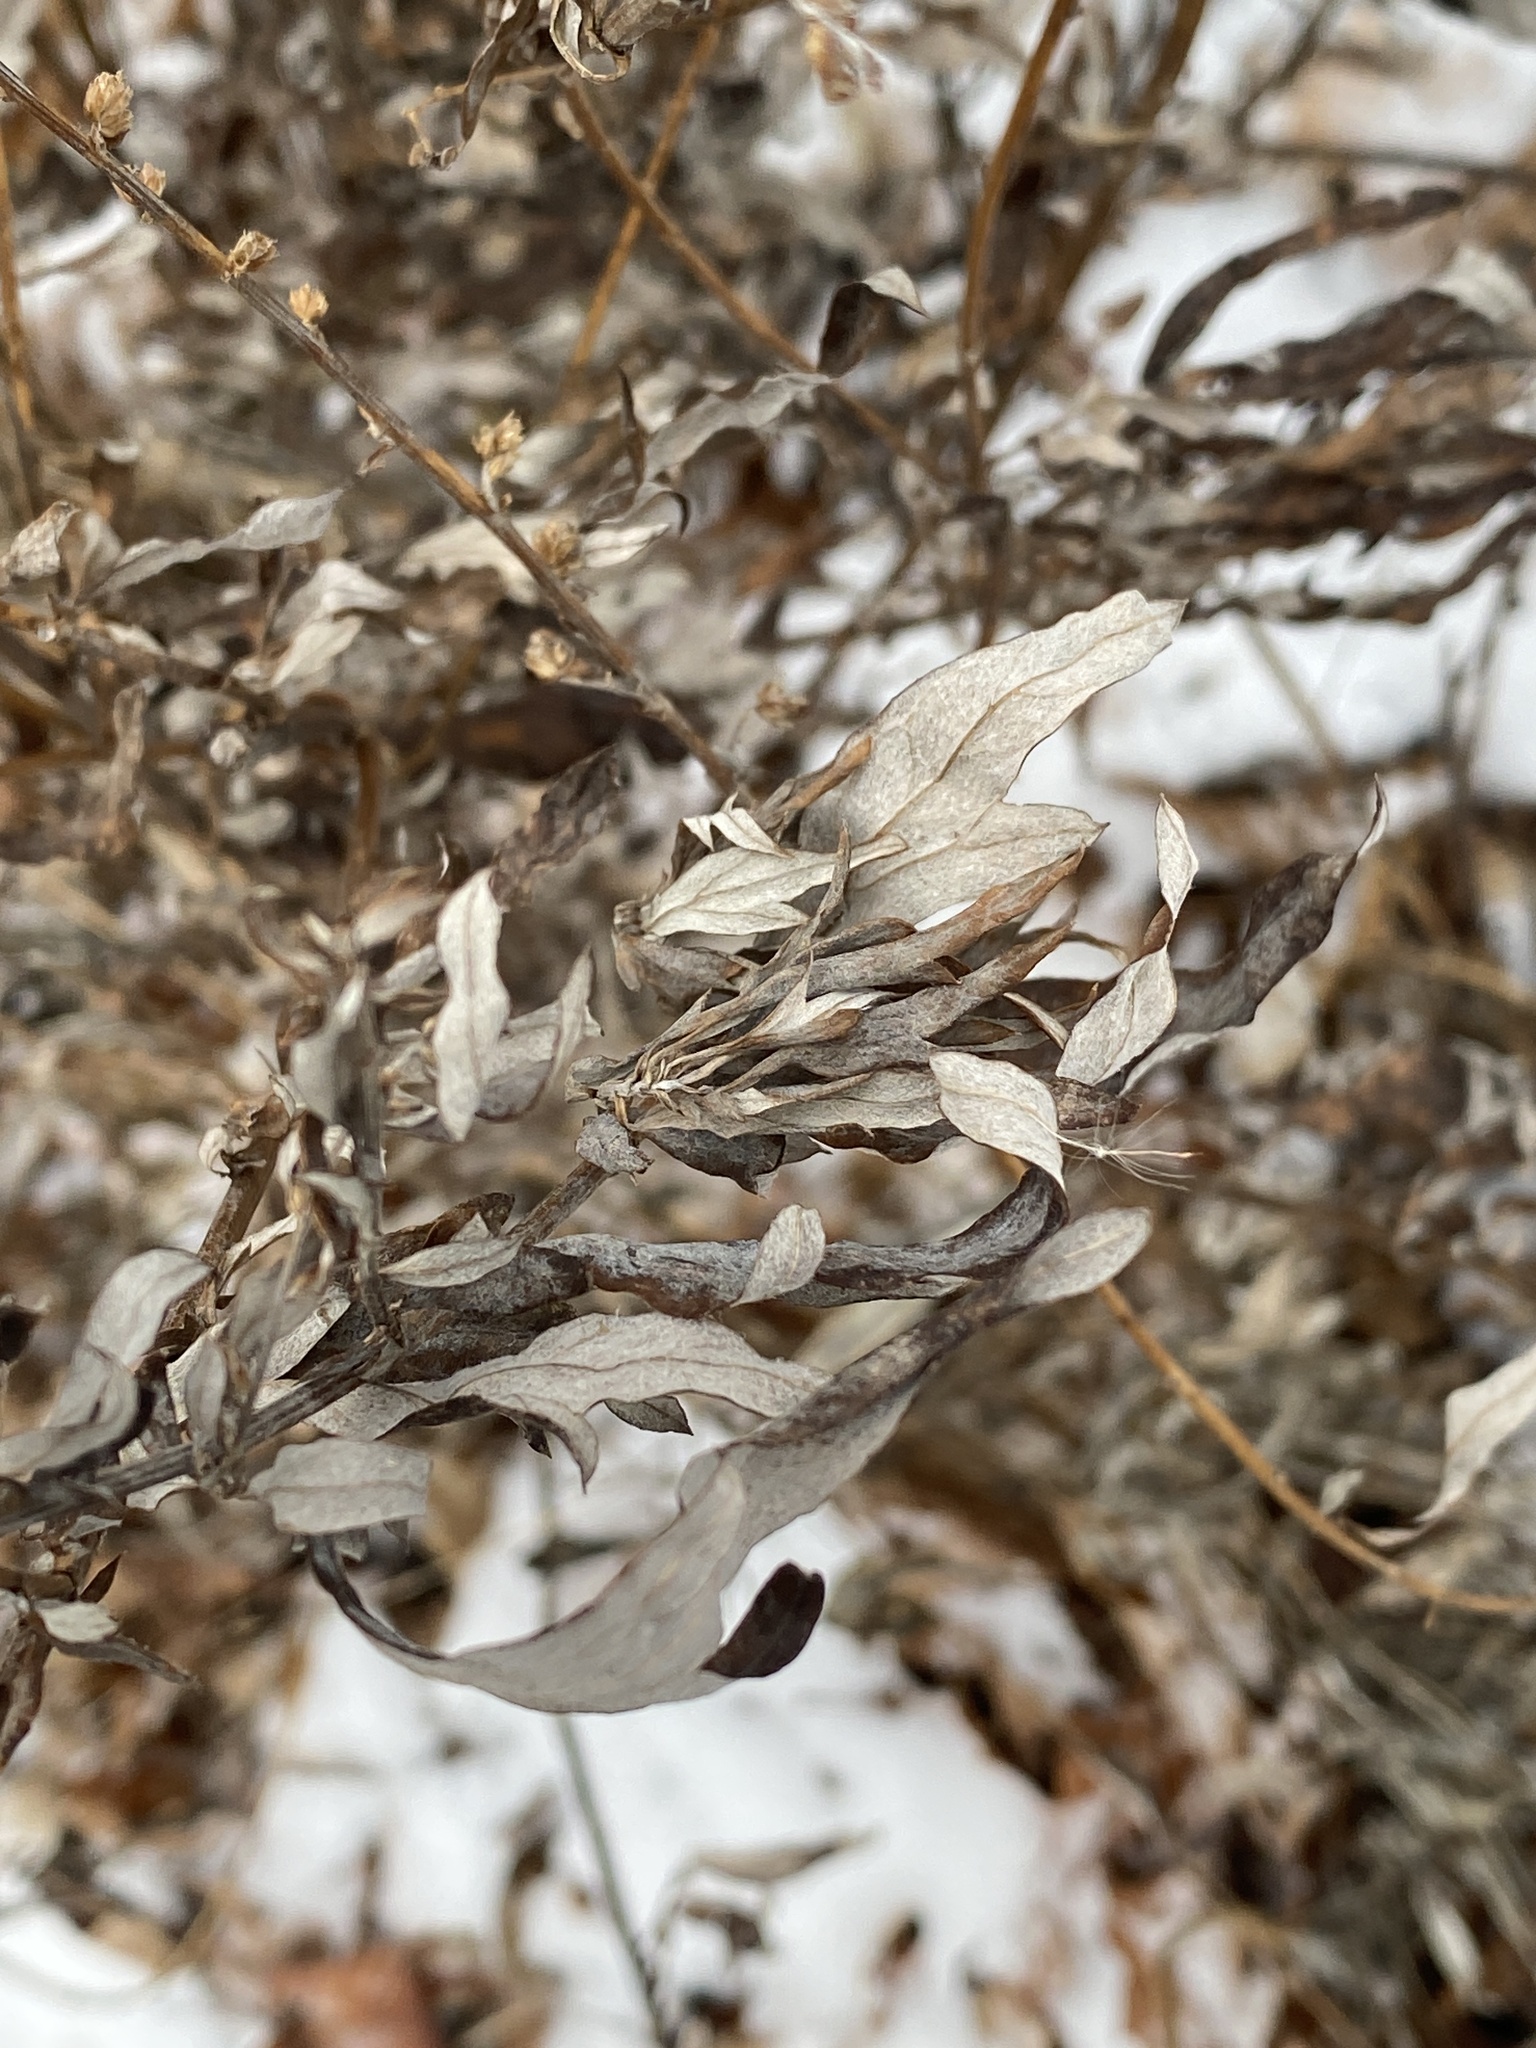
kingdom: Plantae
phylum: Tracheophyta
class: Magnoliopsida
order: Asterales
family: Asteraceae
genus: Artemisia
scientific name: Artemisia vulgaris
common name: Mugwort
